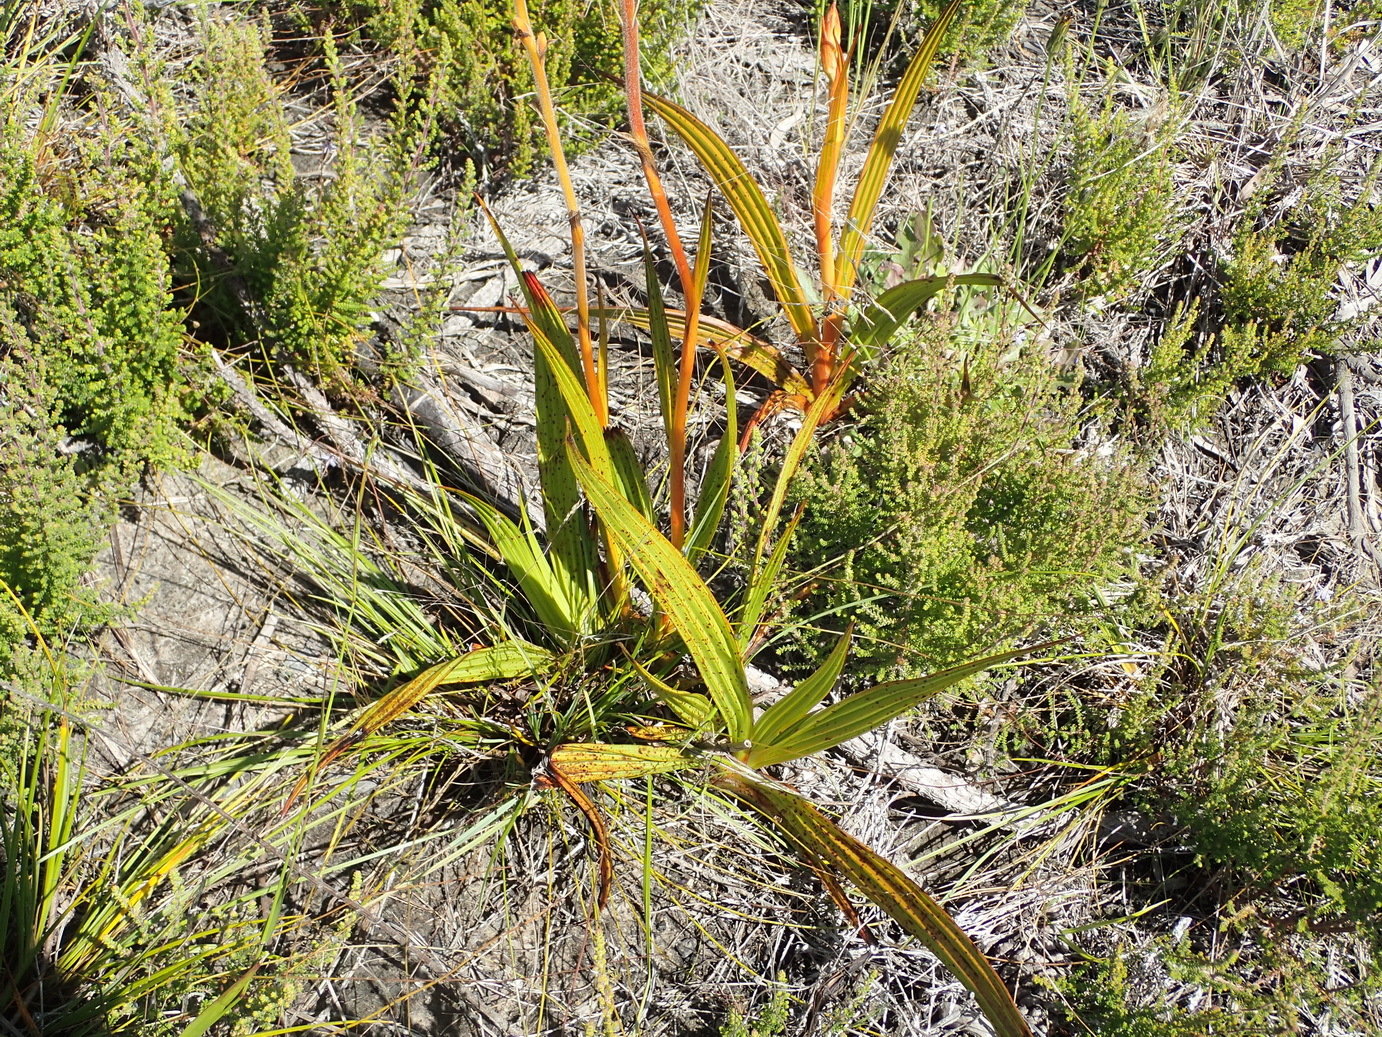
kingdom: Plantae
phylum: Tracheophyta
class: Liliopsida
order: Commelinales
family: Haemodoraceae
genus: Wachendorfia
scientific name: Wachendorfia thyrsiflora
